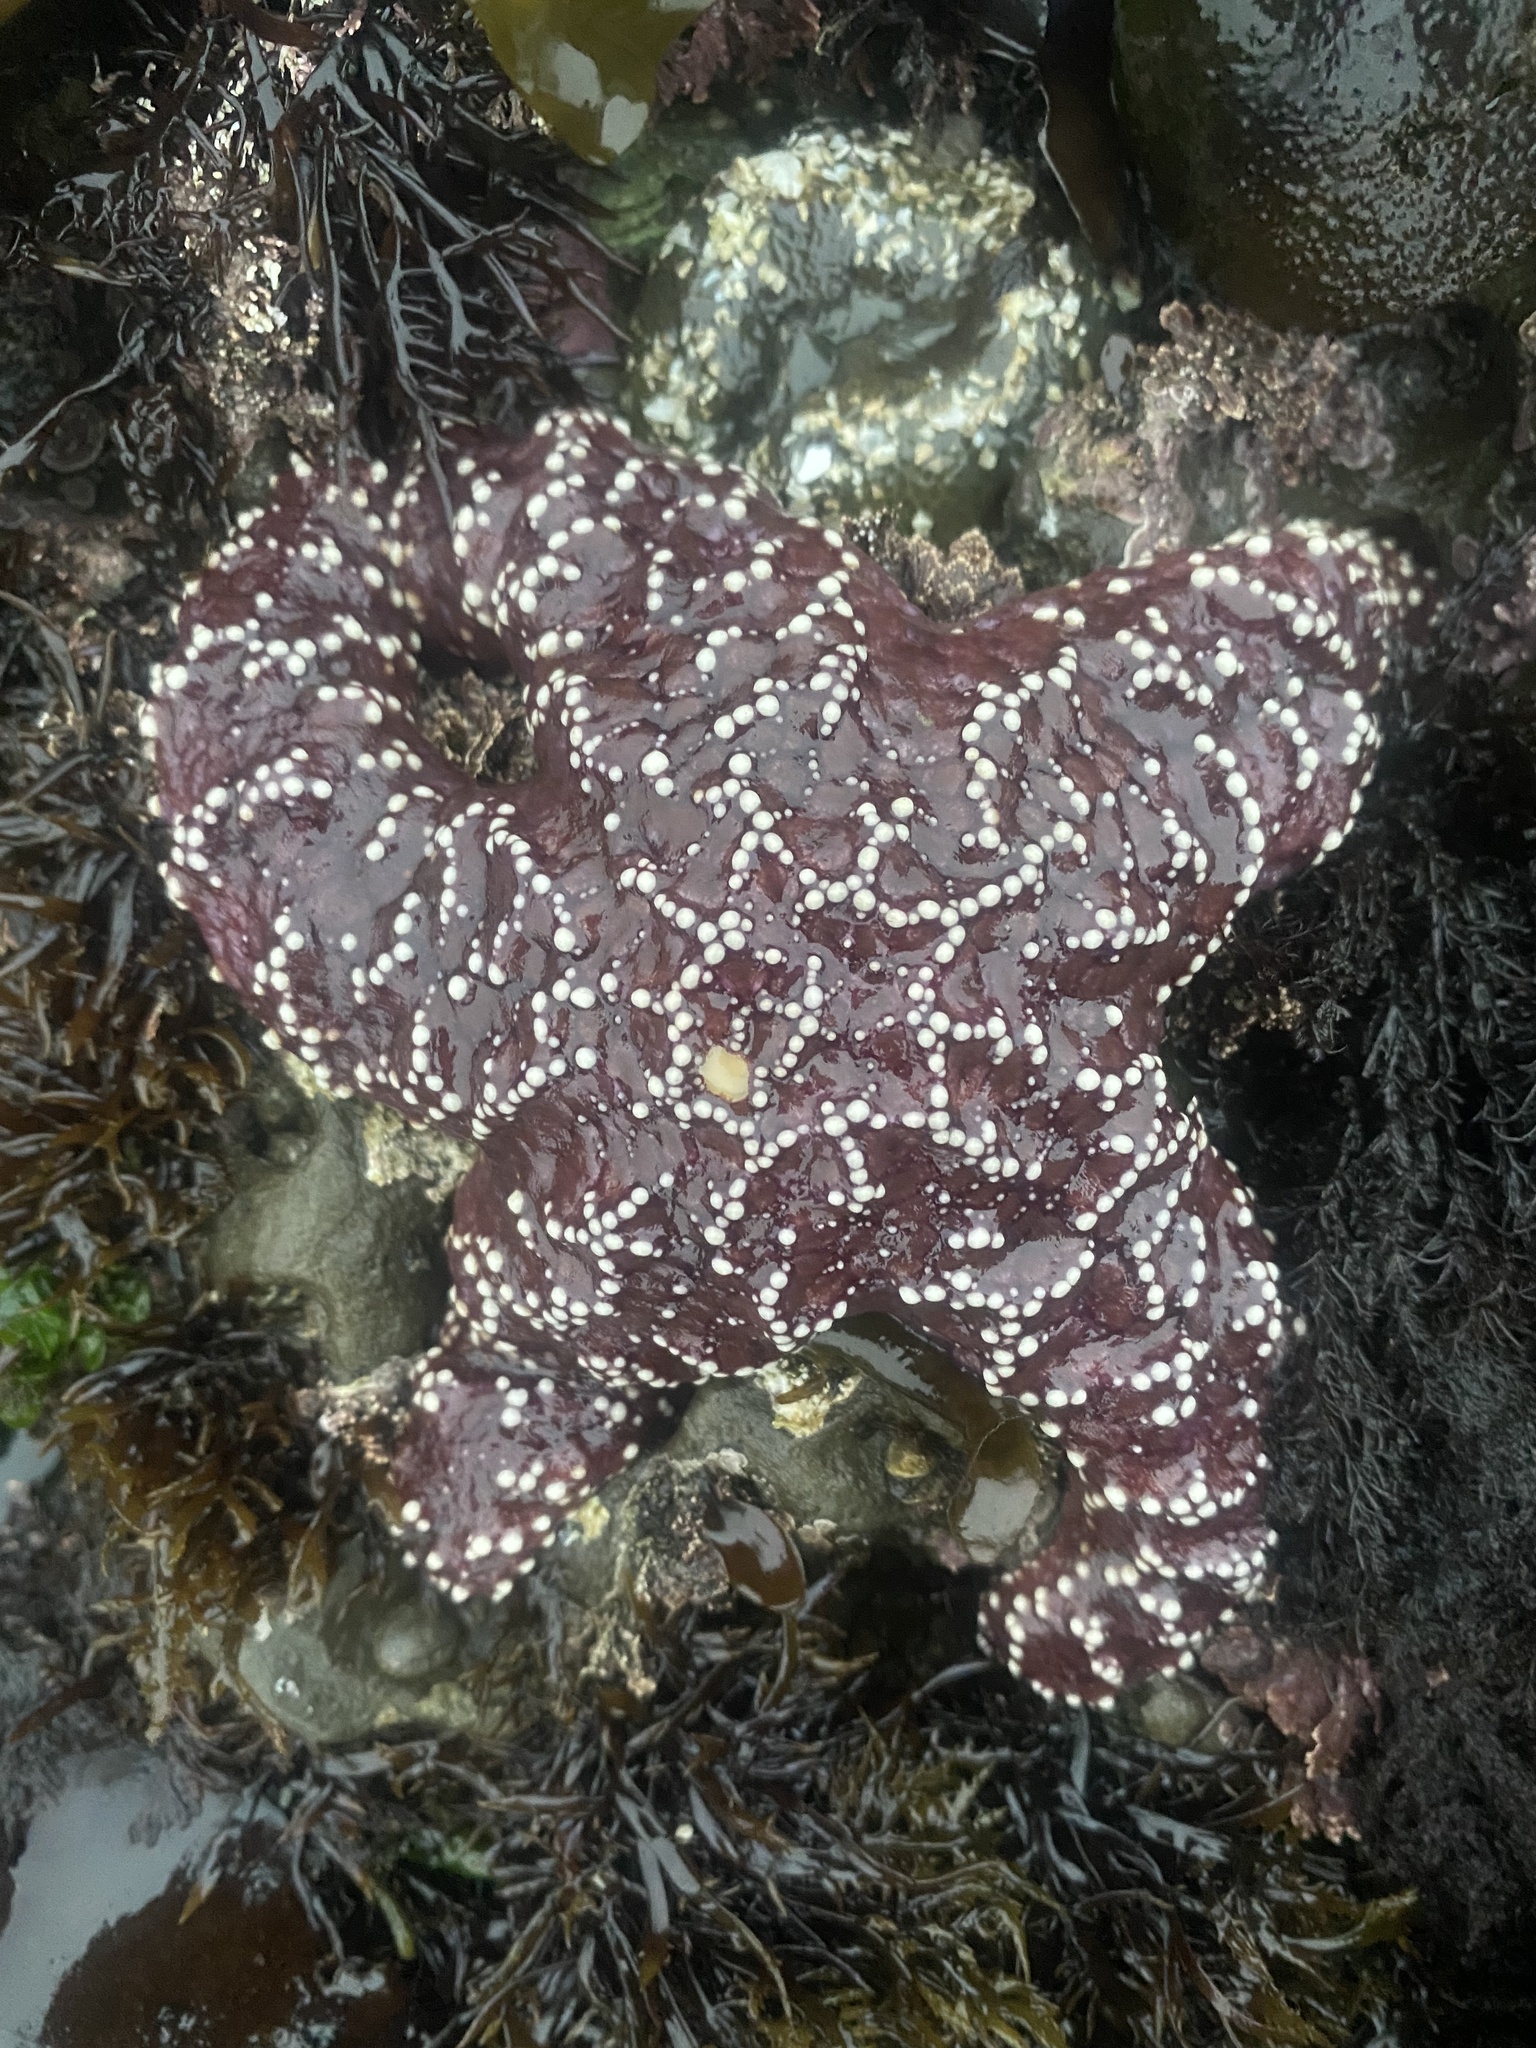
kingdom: Animalia
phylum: Echinodermata
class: Asteroidea
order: Forcipulatida
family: Asteriidae
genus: Pisaster
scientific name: Pisaster ochraceus
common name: Ochre stars
